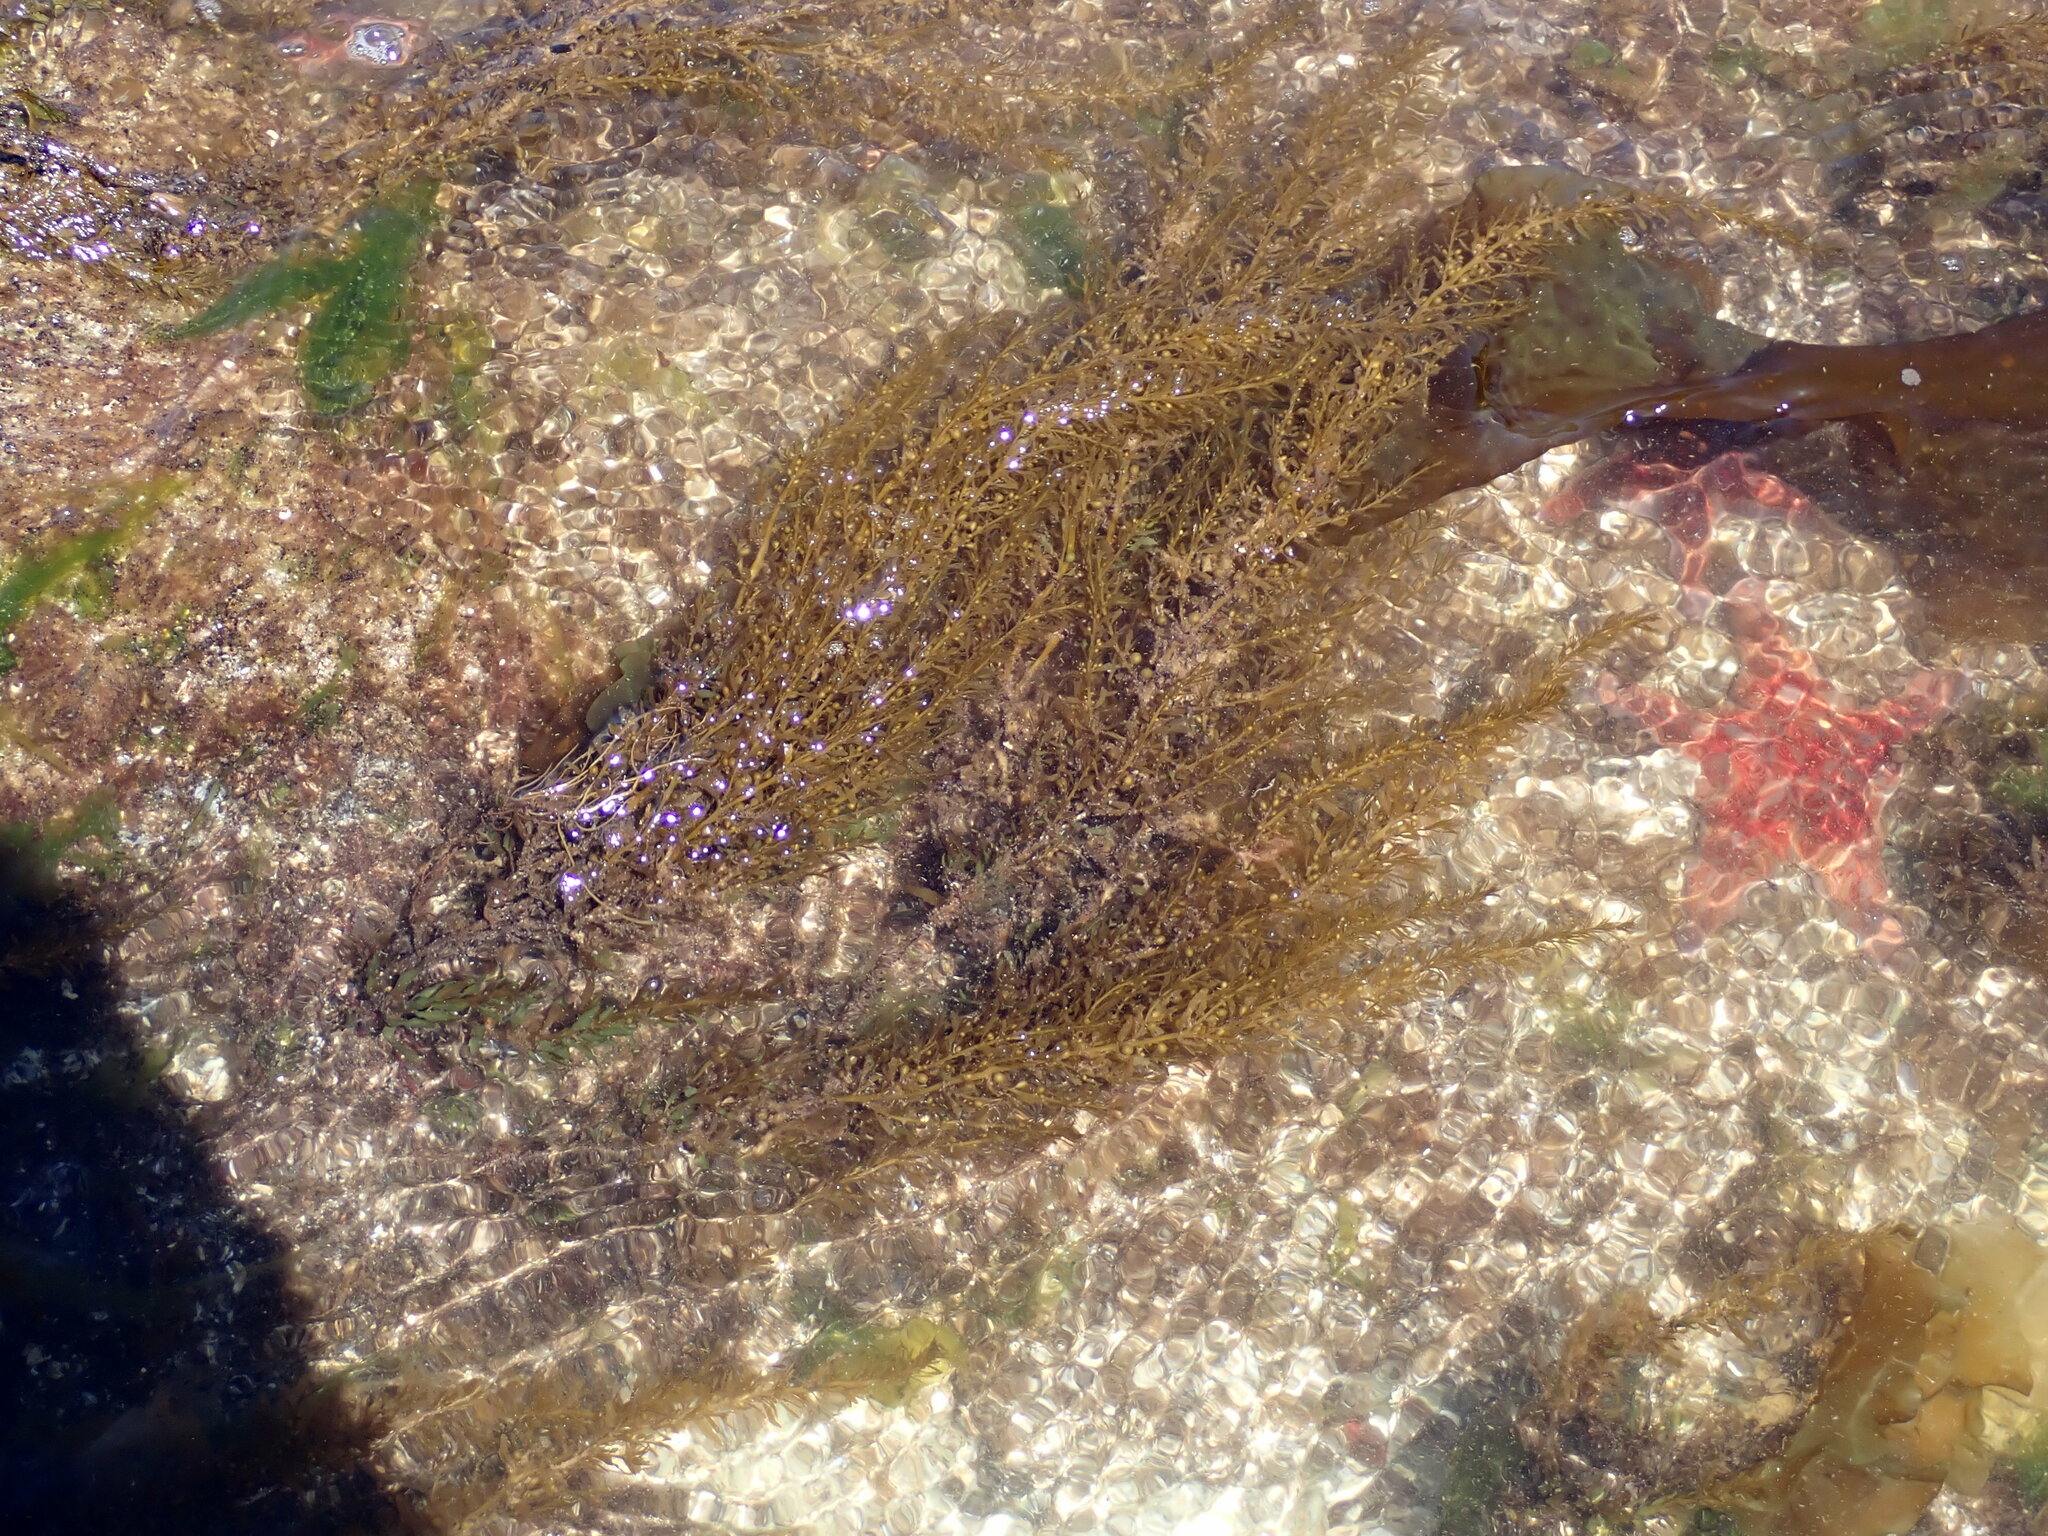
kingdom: Chromista
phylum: Ochrophyta
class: Phaeophyceae
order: Fucales
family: Sargassaceae
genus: Sargassum
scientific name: Sargassum muticum
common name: Japweed
